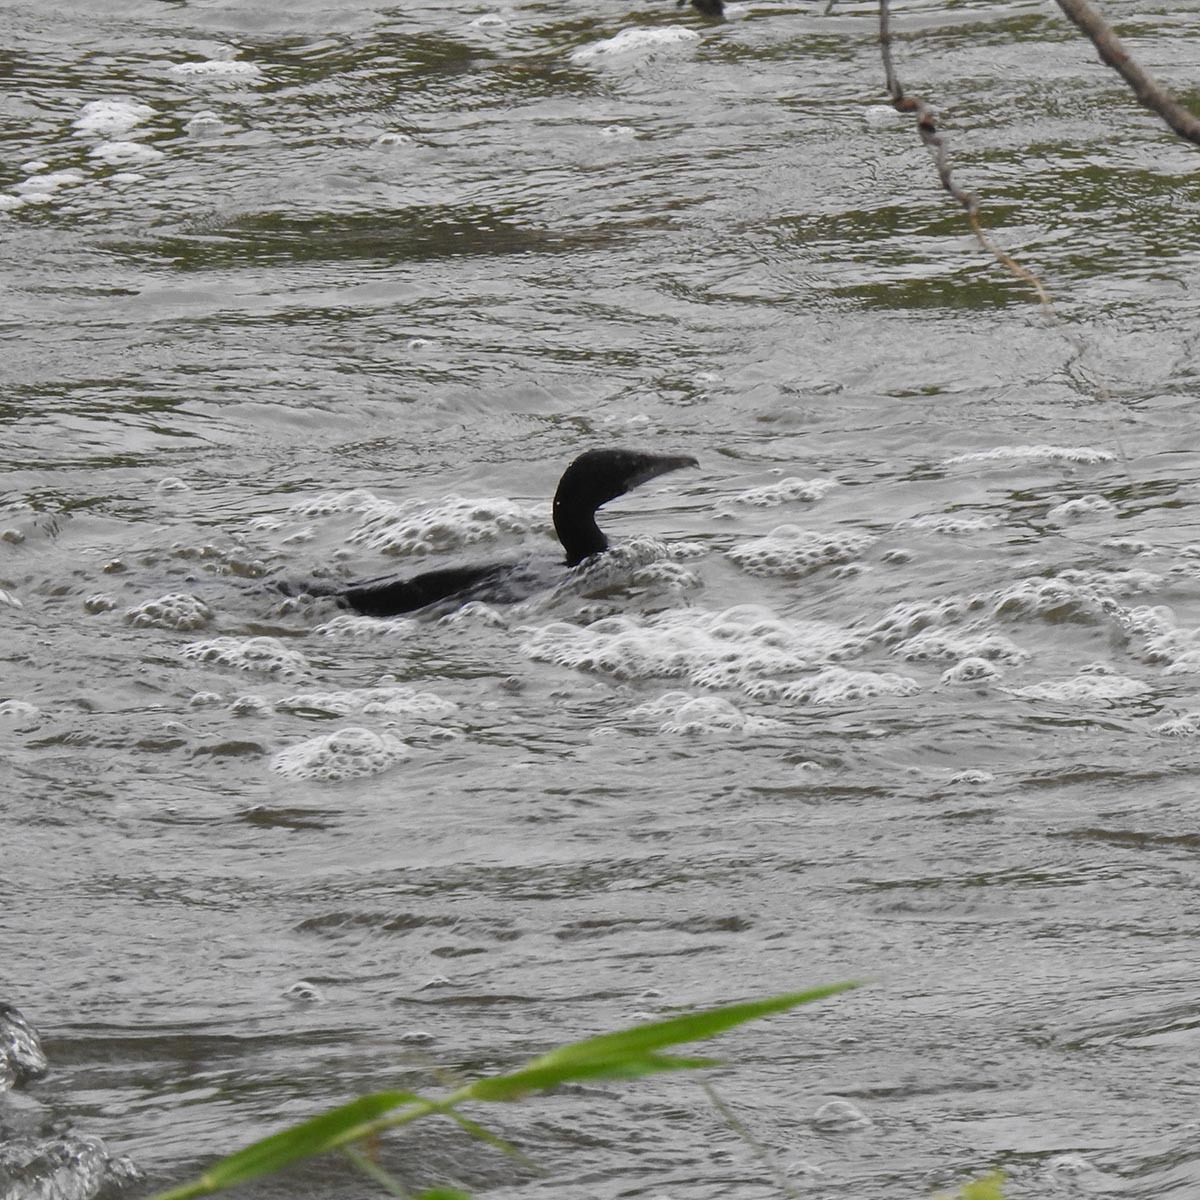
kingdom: Animalia
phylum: Chordata
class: Aves
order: Suliformes
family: Phalacrocoracidae
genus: Microcarbo
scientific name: Microcarbo niger
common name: Little cormorant
